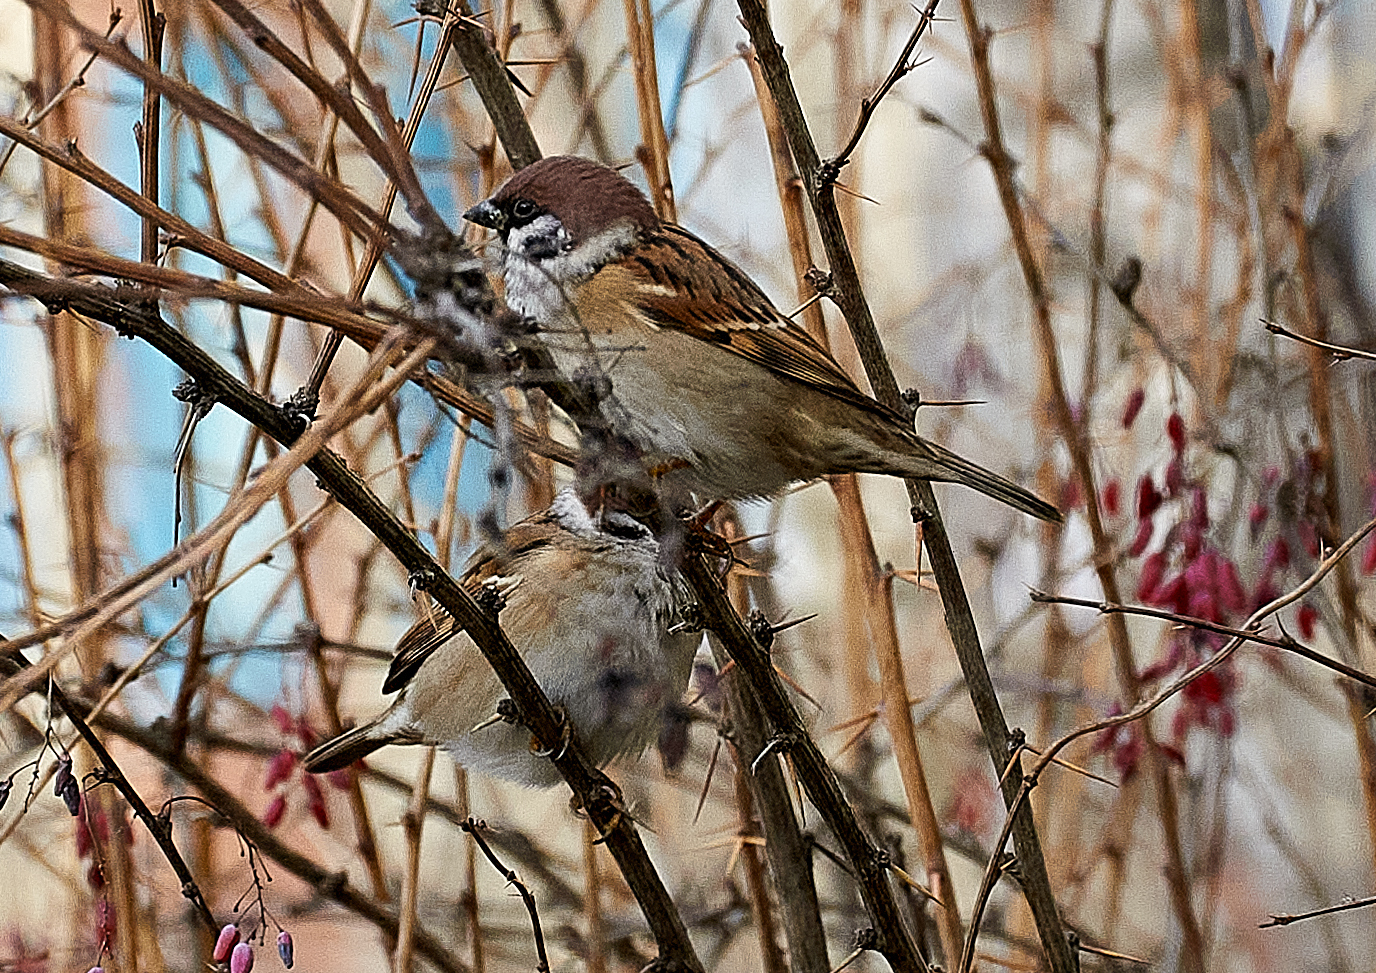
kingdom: Animalia
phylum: Chordata
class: Aves
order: Passeriformes
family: Passeridae
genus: Passer
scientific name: Passer montanus
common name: Eurasian tree sparrow
